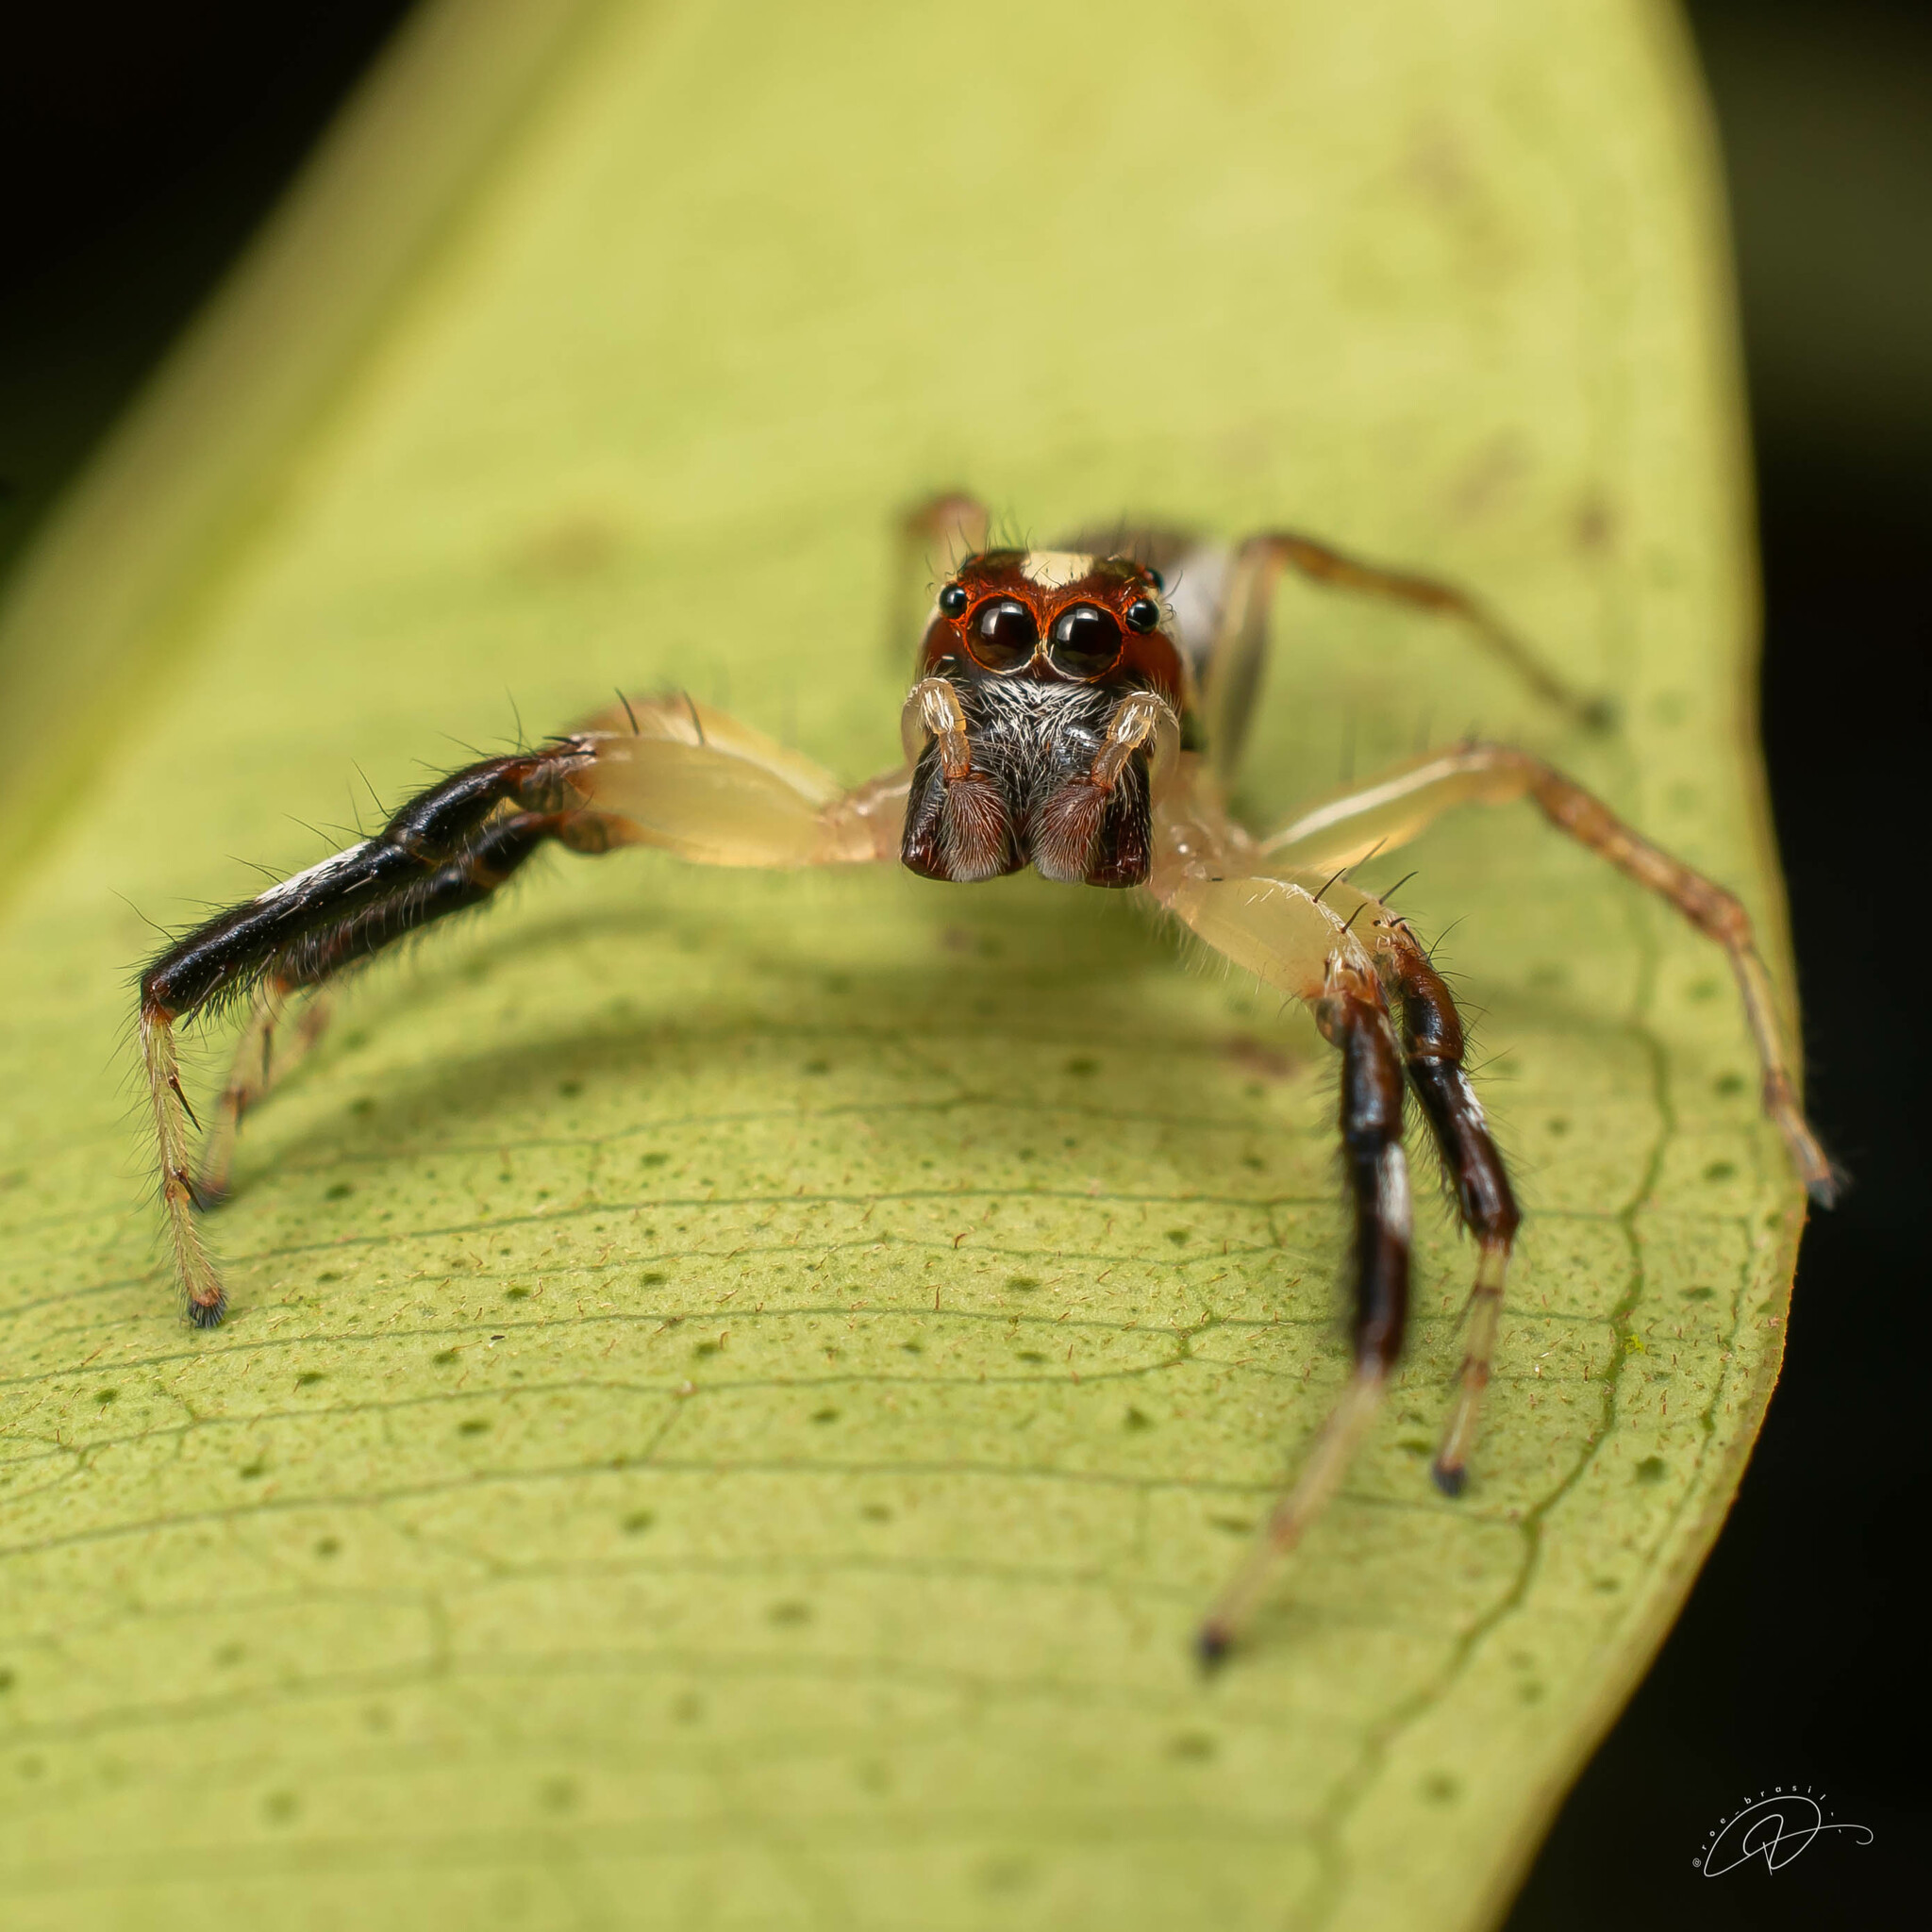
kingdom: Animalia
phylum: Arthropoda
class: Arachnida
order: Araneae
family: Salticidae
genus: Asaracus
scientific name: Asaracus megacephalus
